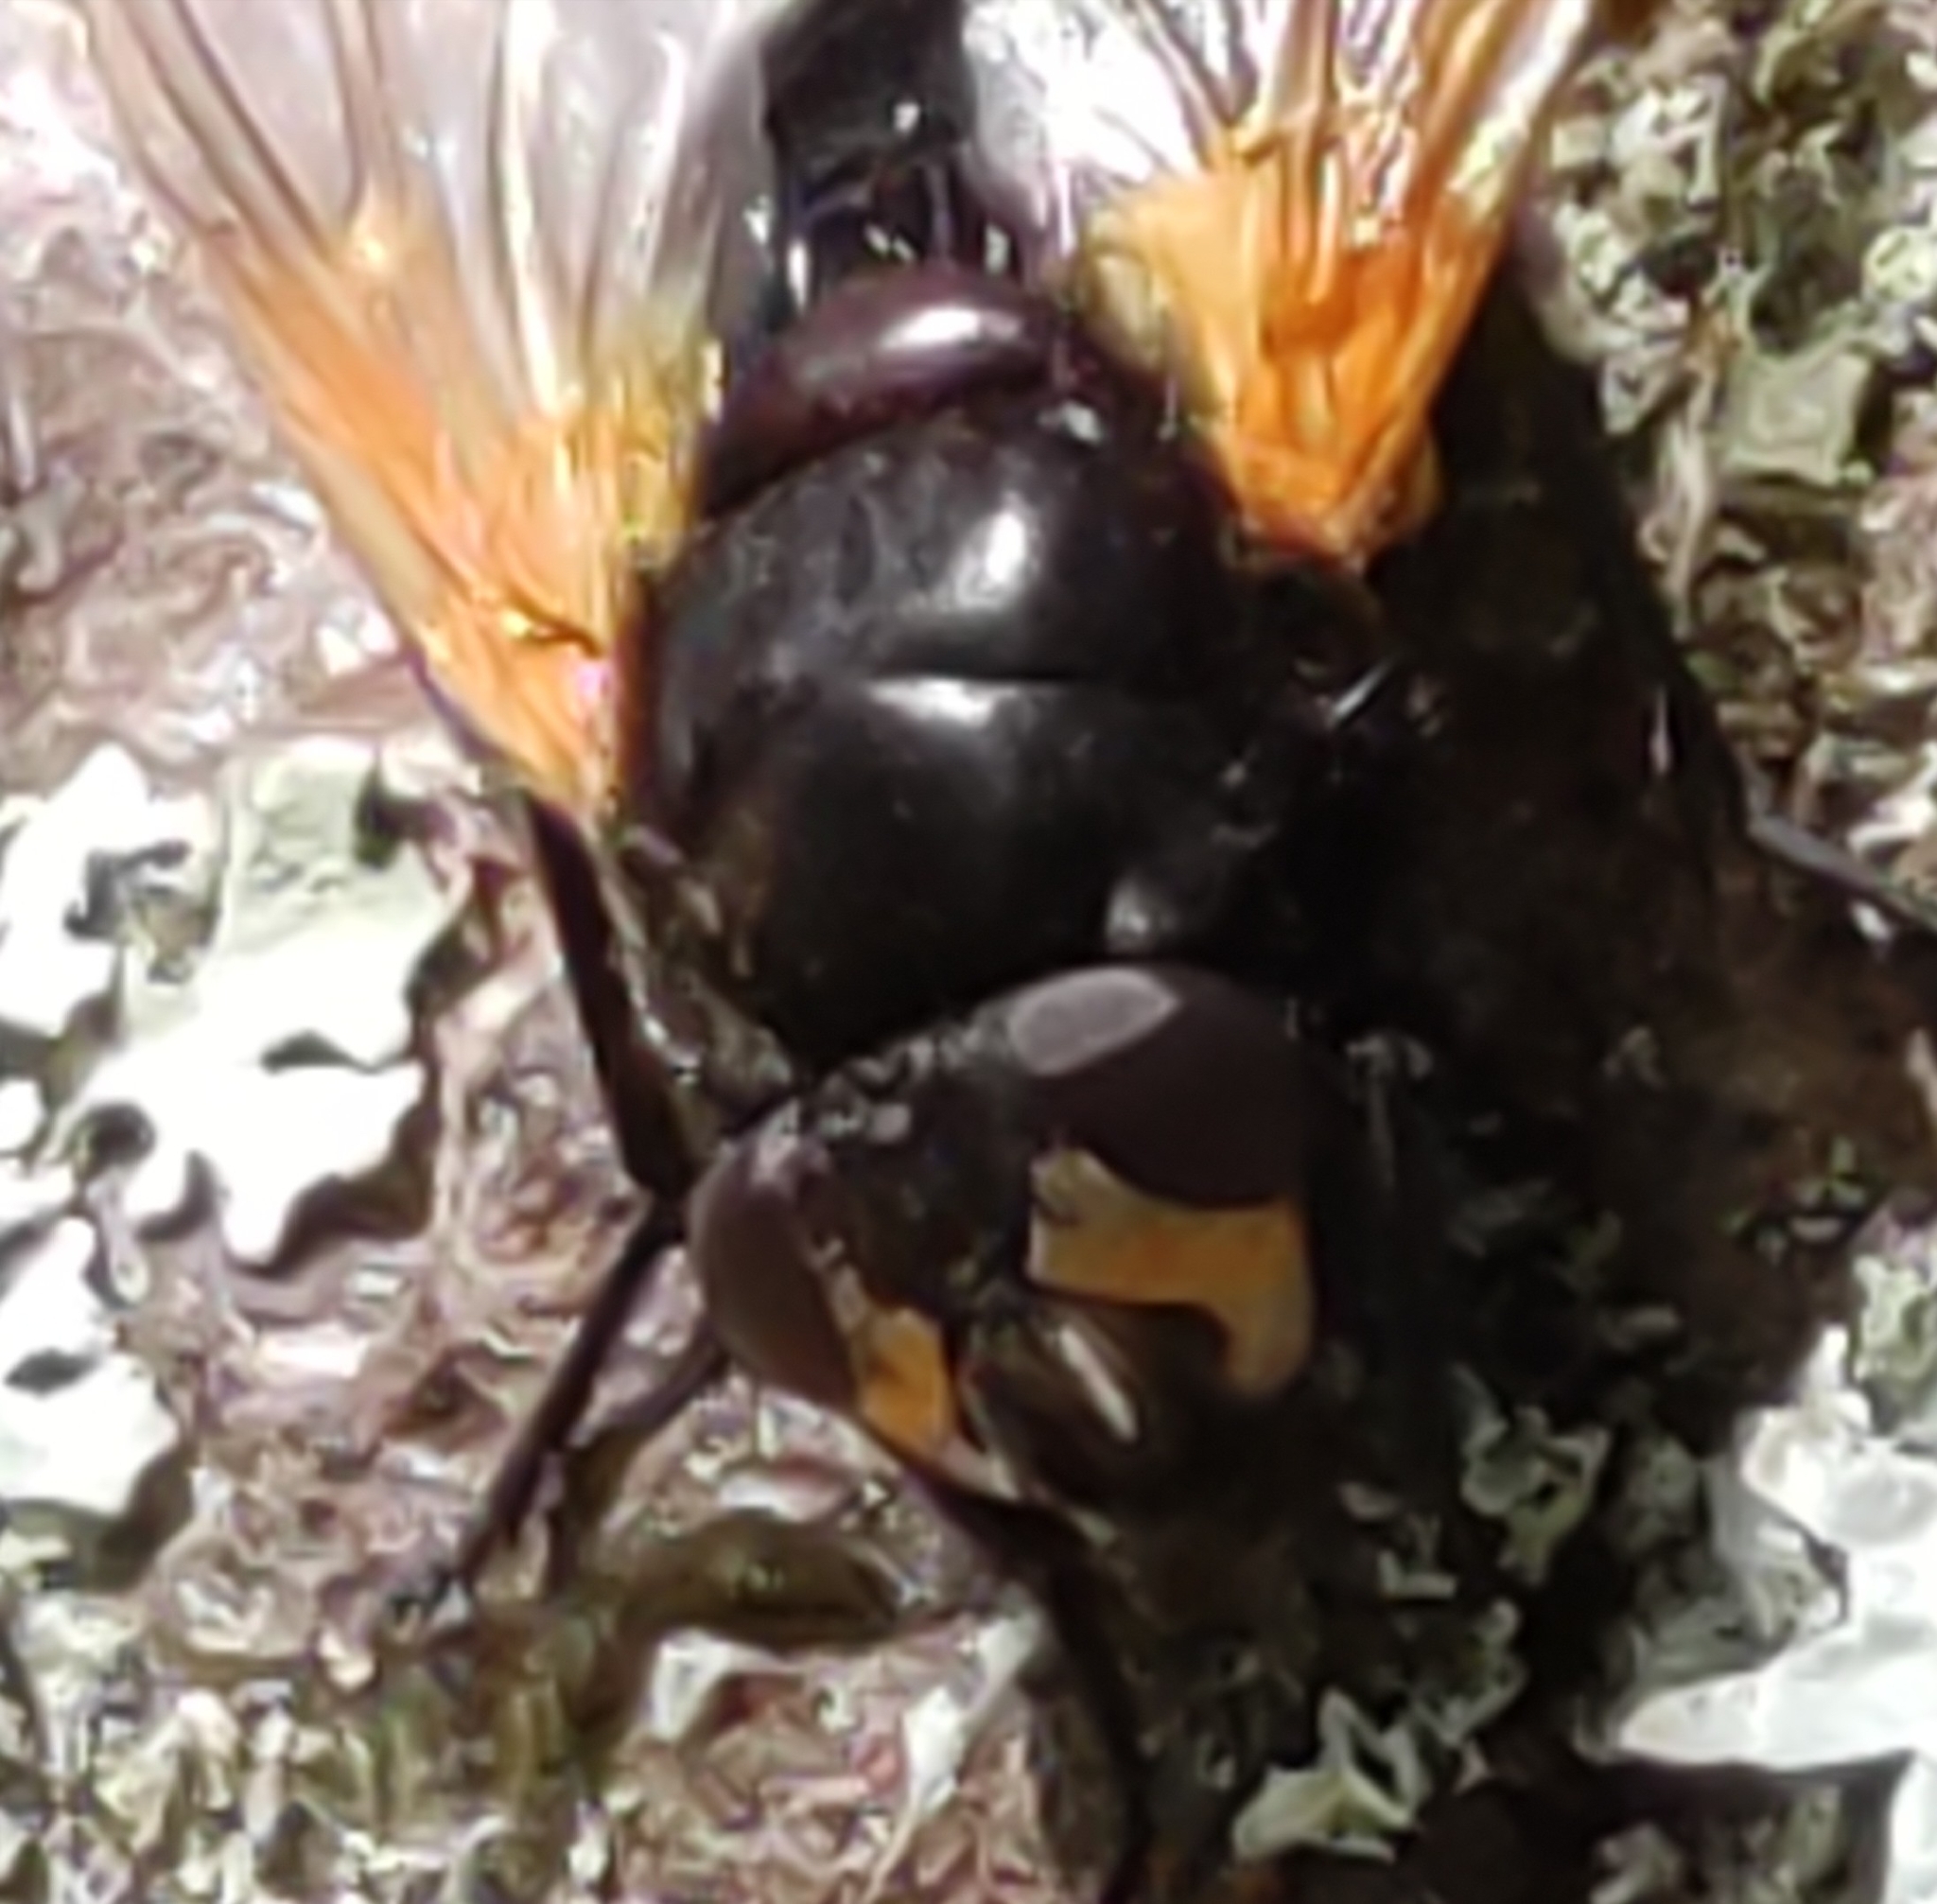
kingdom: Animalia
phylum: Arthropoda
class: Insecta
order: Diptera
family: Muscidae
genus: Mesembrina
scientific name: Mesembrina meridiana
